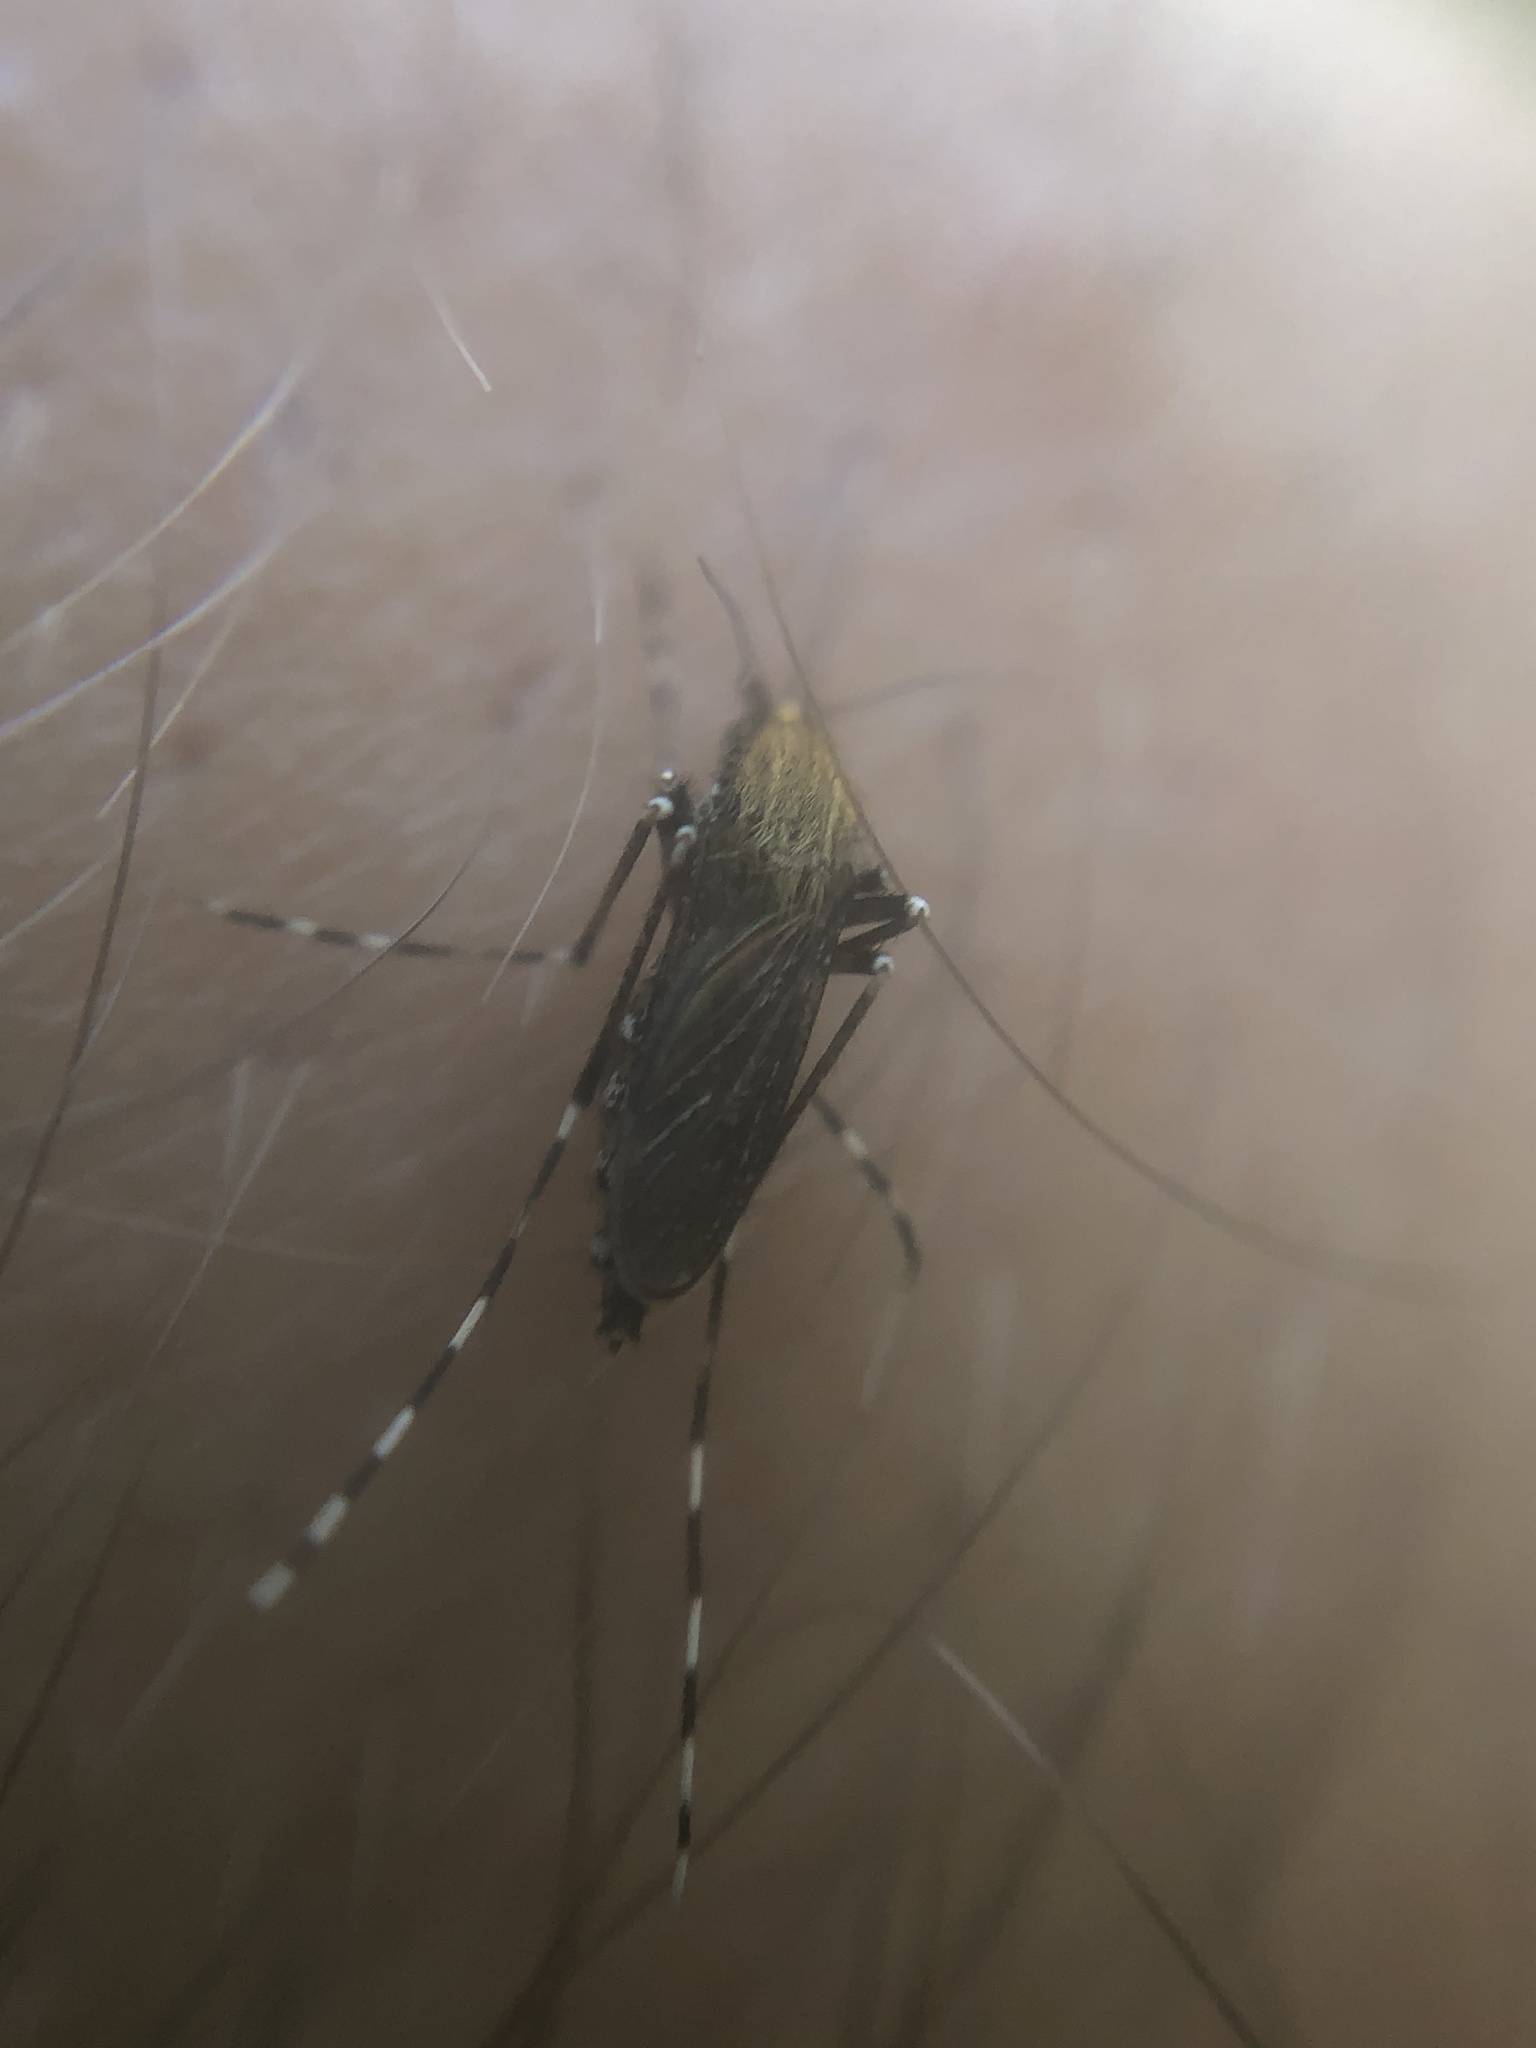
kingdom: Animalia
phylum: Arthropoda
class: Insecta
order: Diptera
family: Culicidae
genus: Aedes
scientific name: Aedes sollicitans
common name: Saltmarsh mosquito
